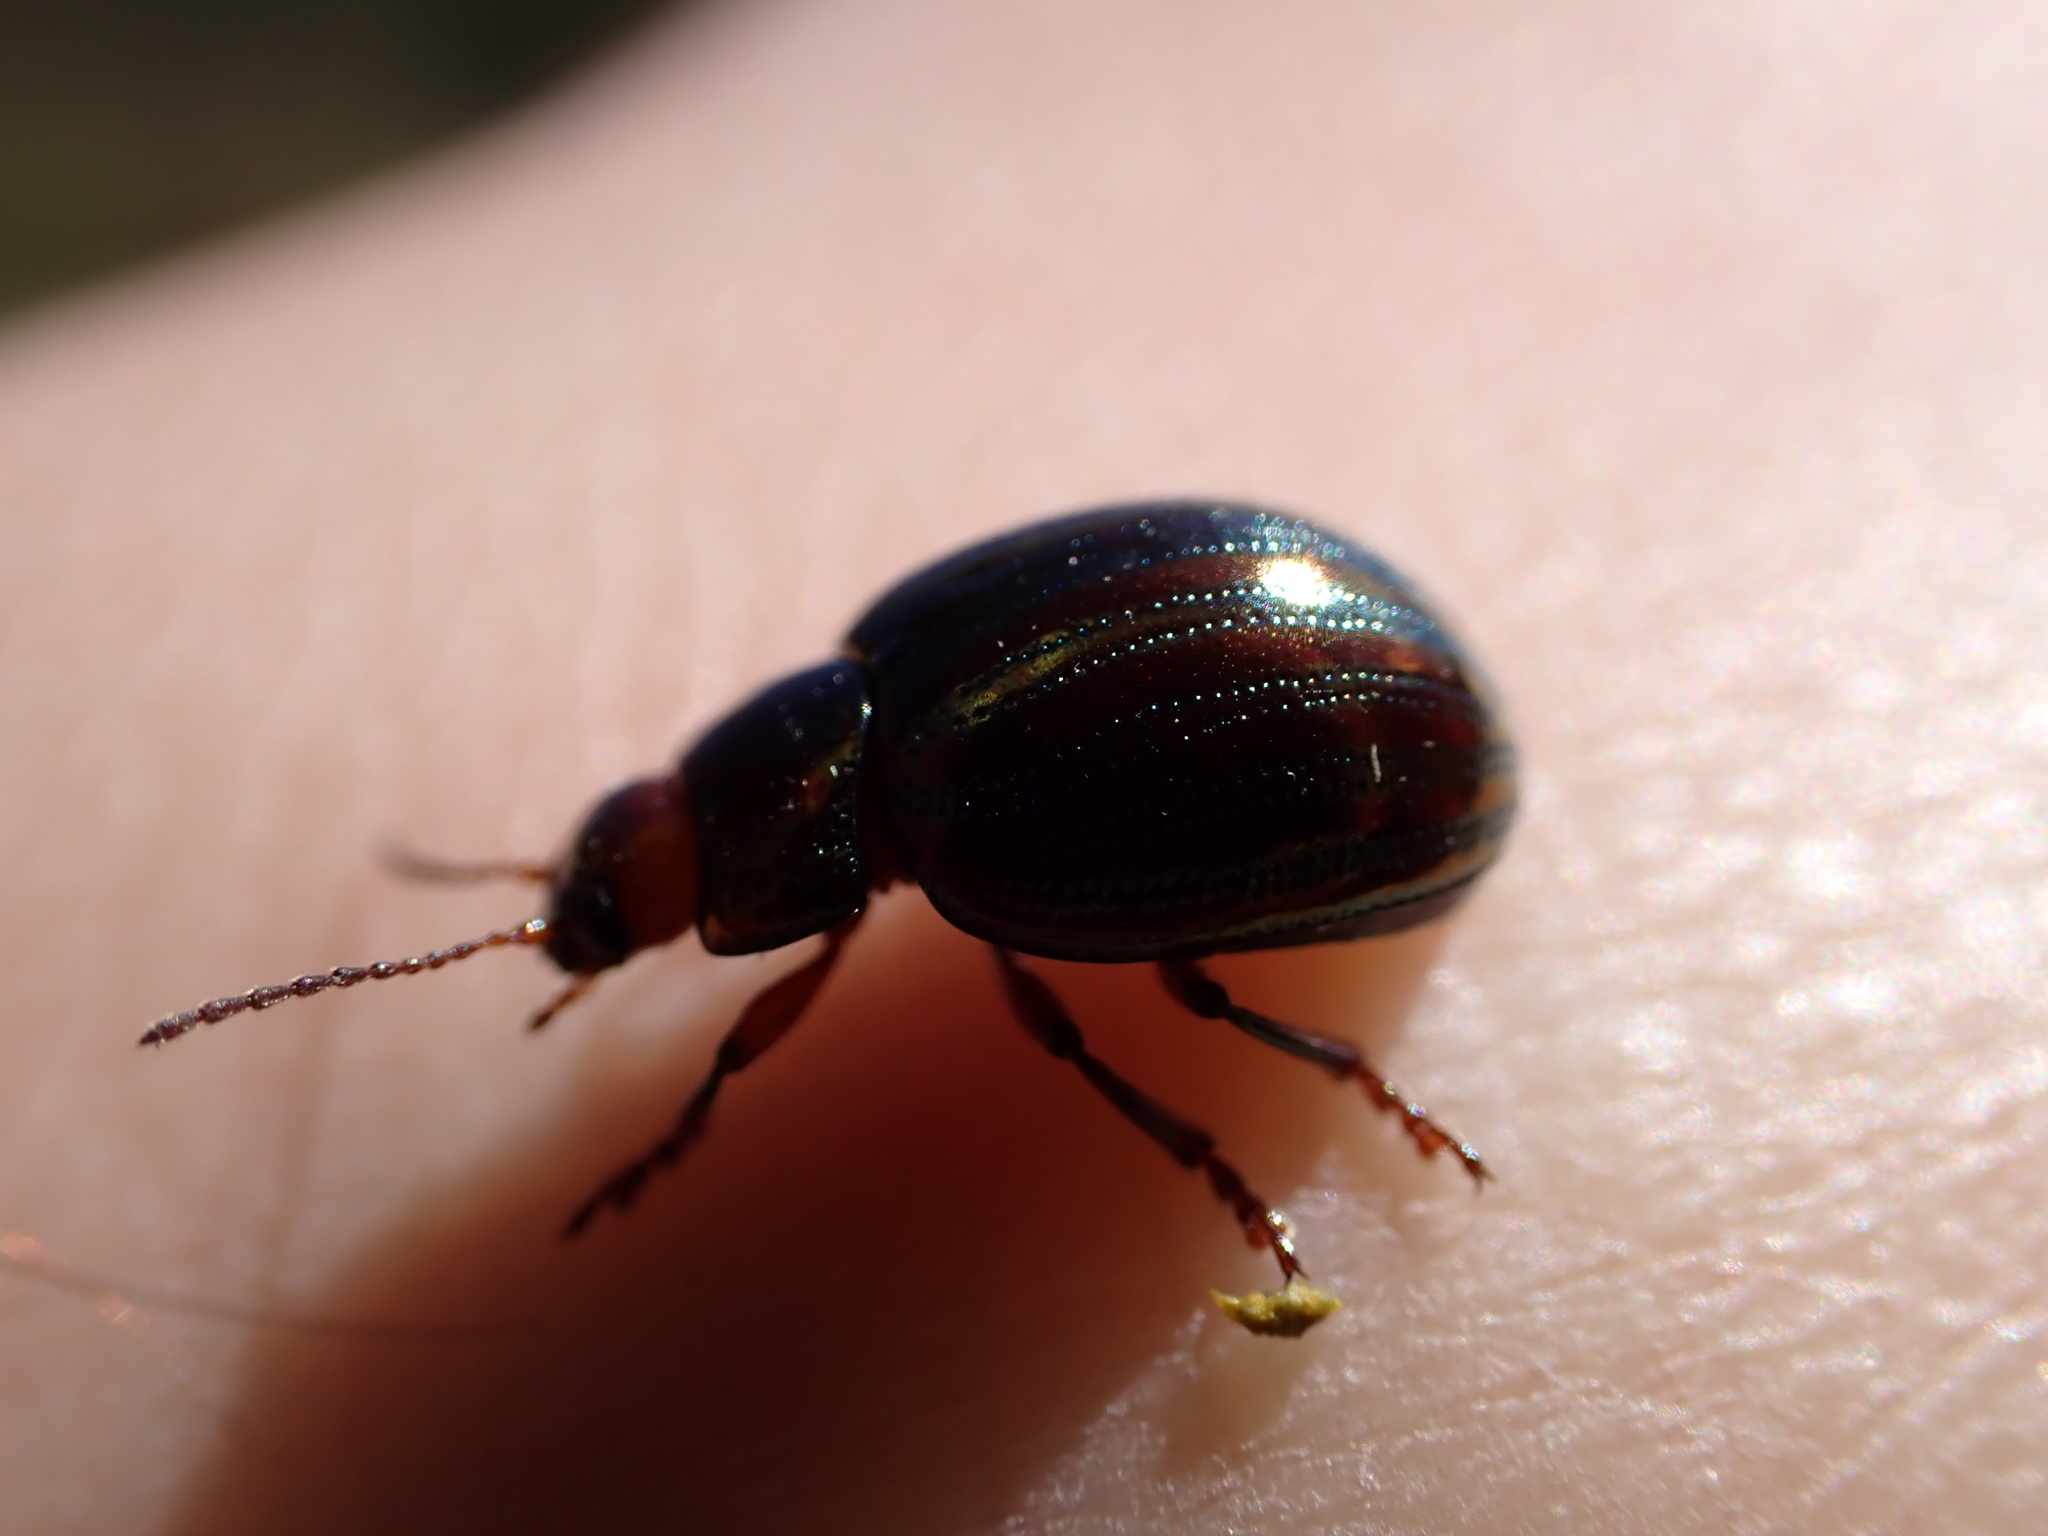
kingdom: Animalia
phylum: Arthropoda
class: Insecta
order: Coleoptera
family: Chrysomelidae
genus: Chrysolina
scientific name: Chrysolina americana
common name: Rosemary beetle
